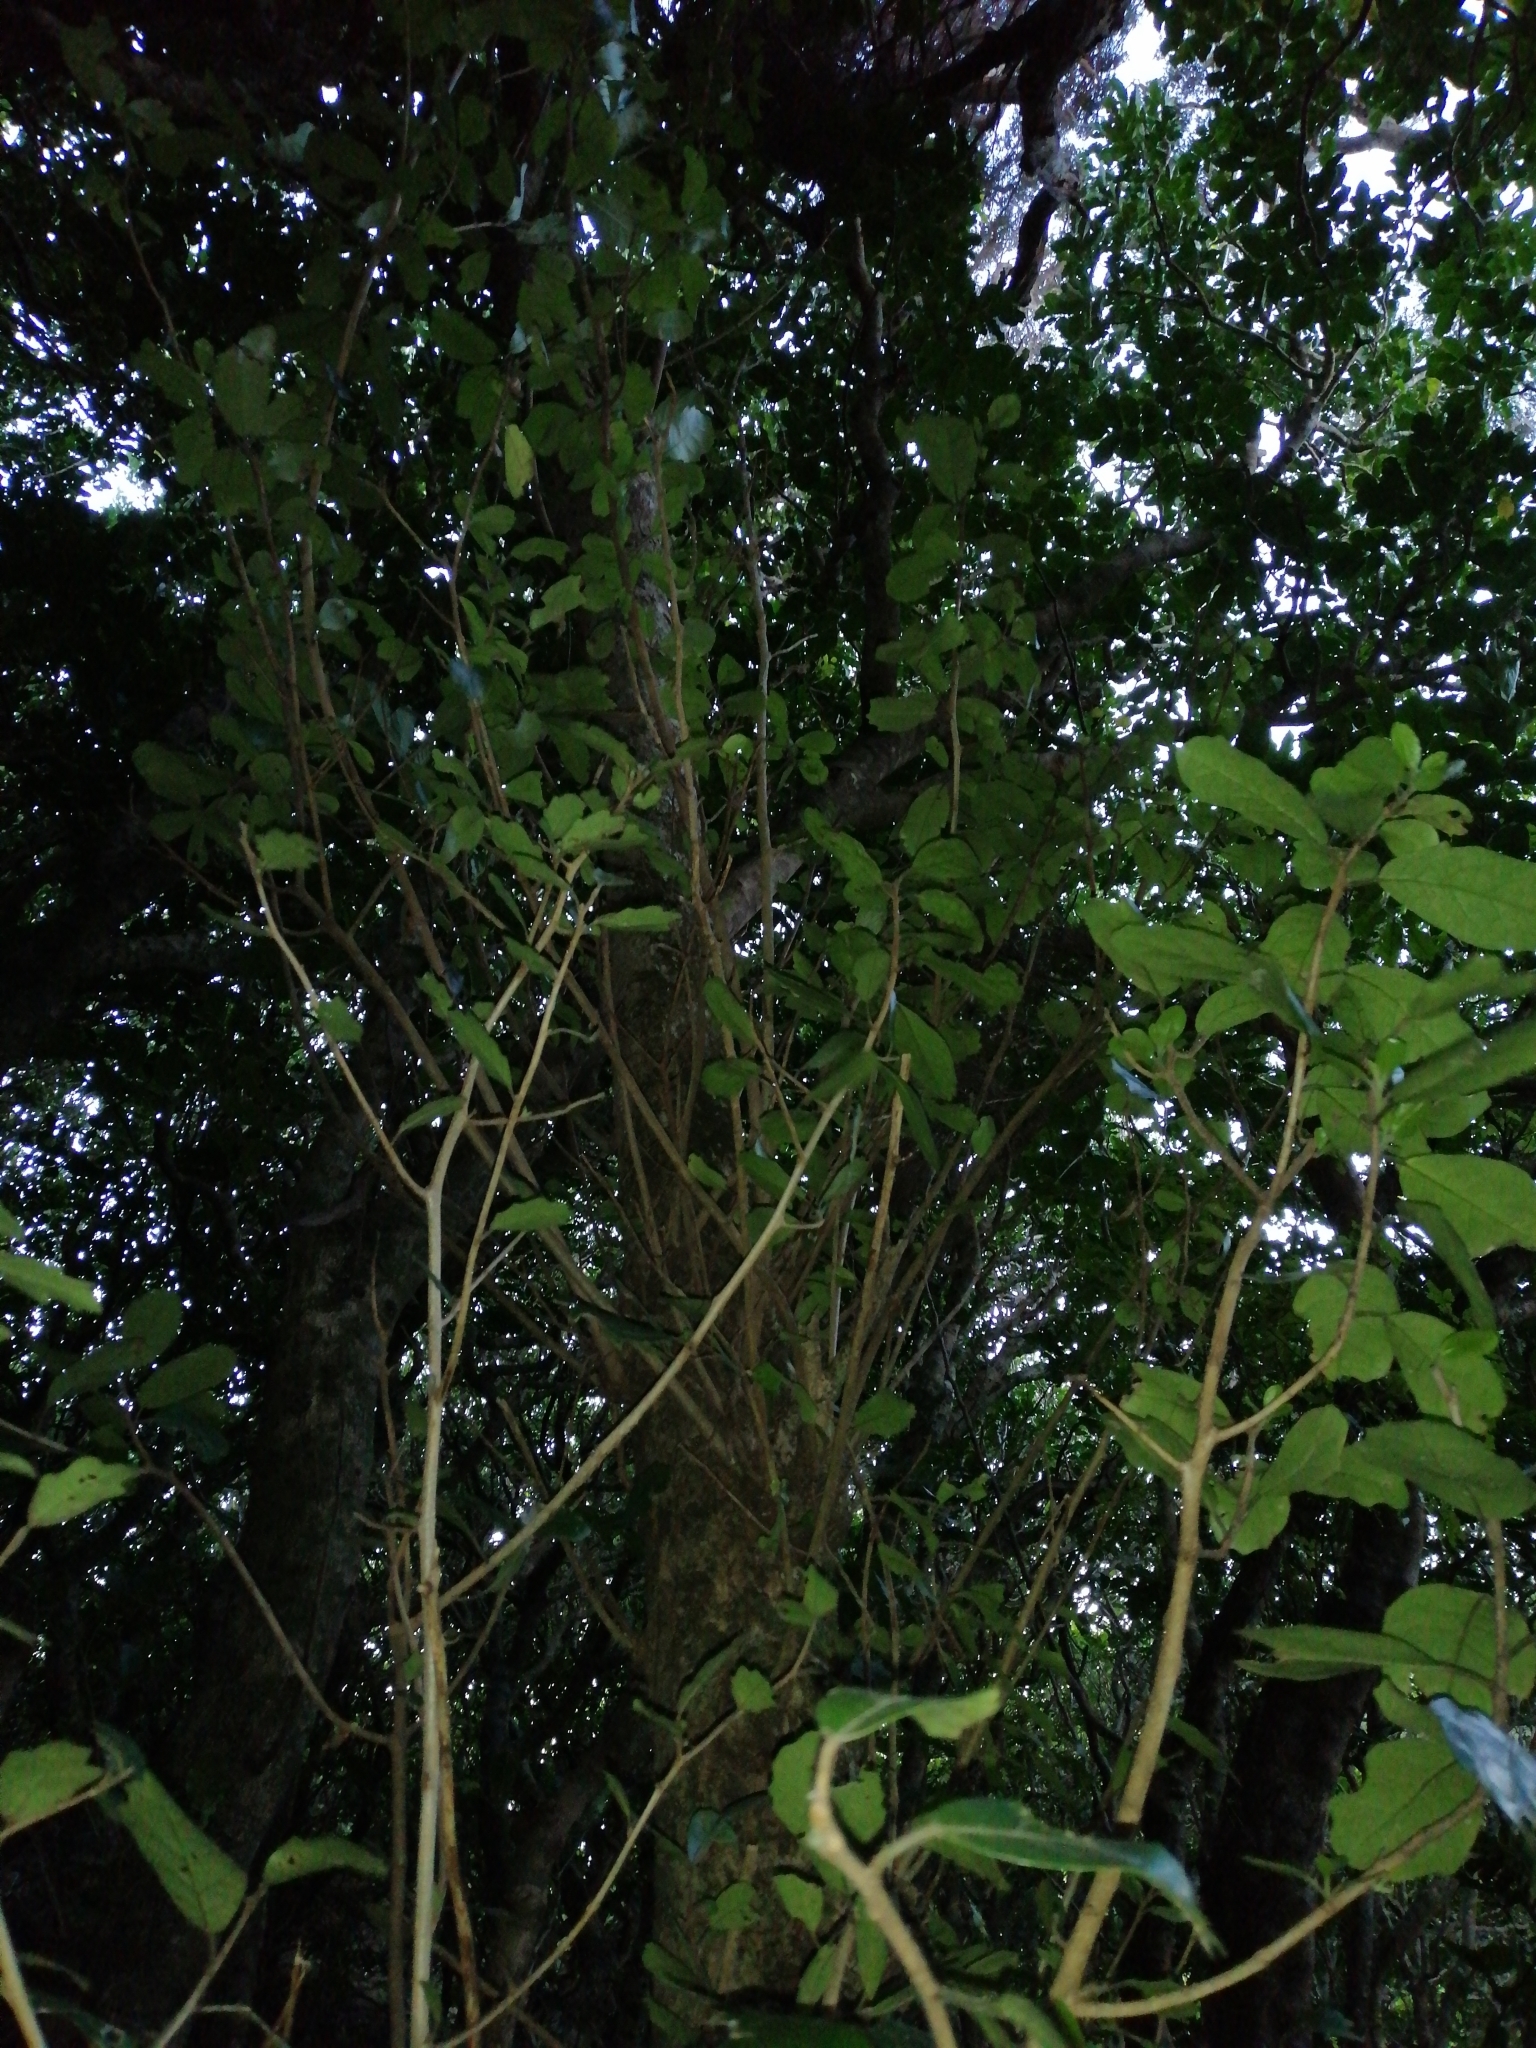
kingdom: Plantae
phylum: Tracheophyta
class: Magnoliopsida
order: Apiales
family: Pennantiaceae
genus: Pennantia
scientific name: Pennantia corymbosa
